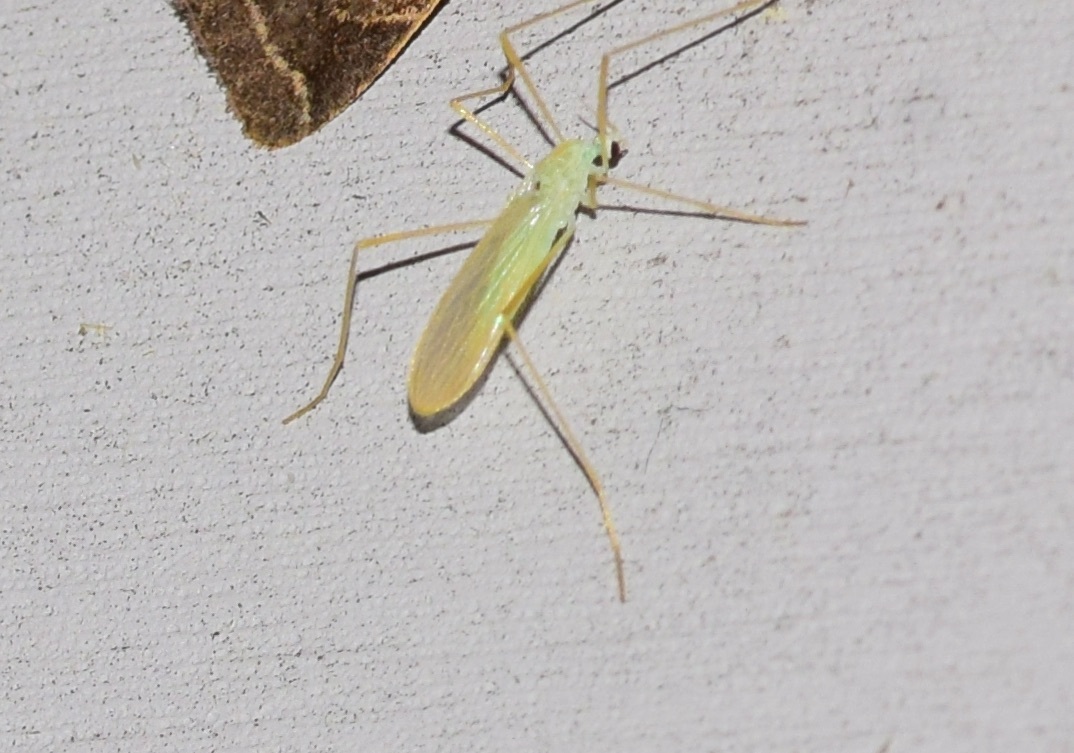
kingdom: Animalia
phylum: Arthropoda
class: Insecta
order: Diptera
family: Limoniidae
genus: Erioptera
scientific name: Erioptera
